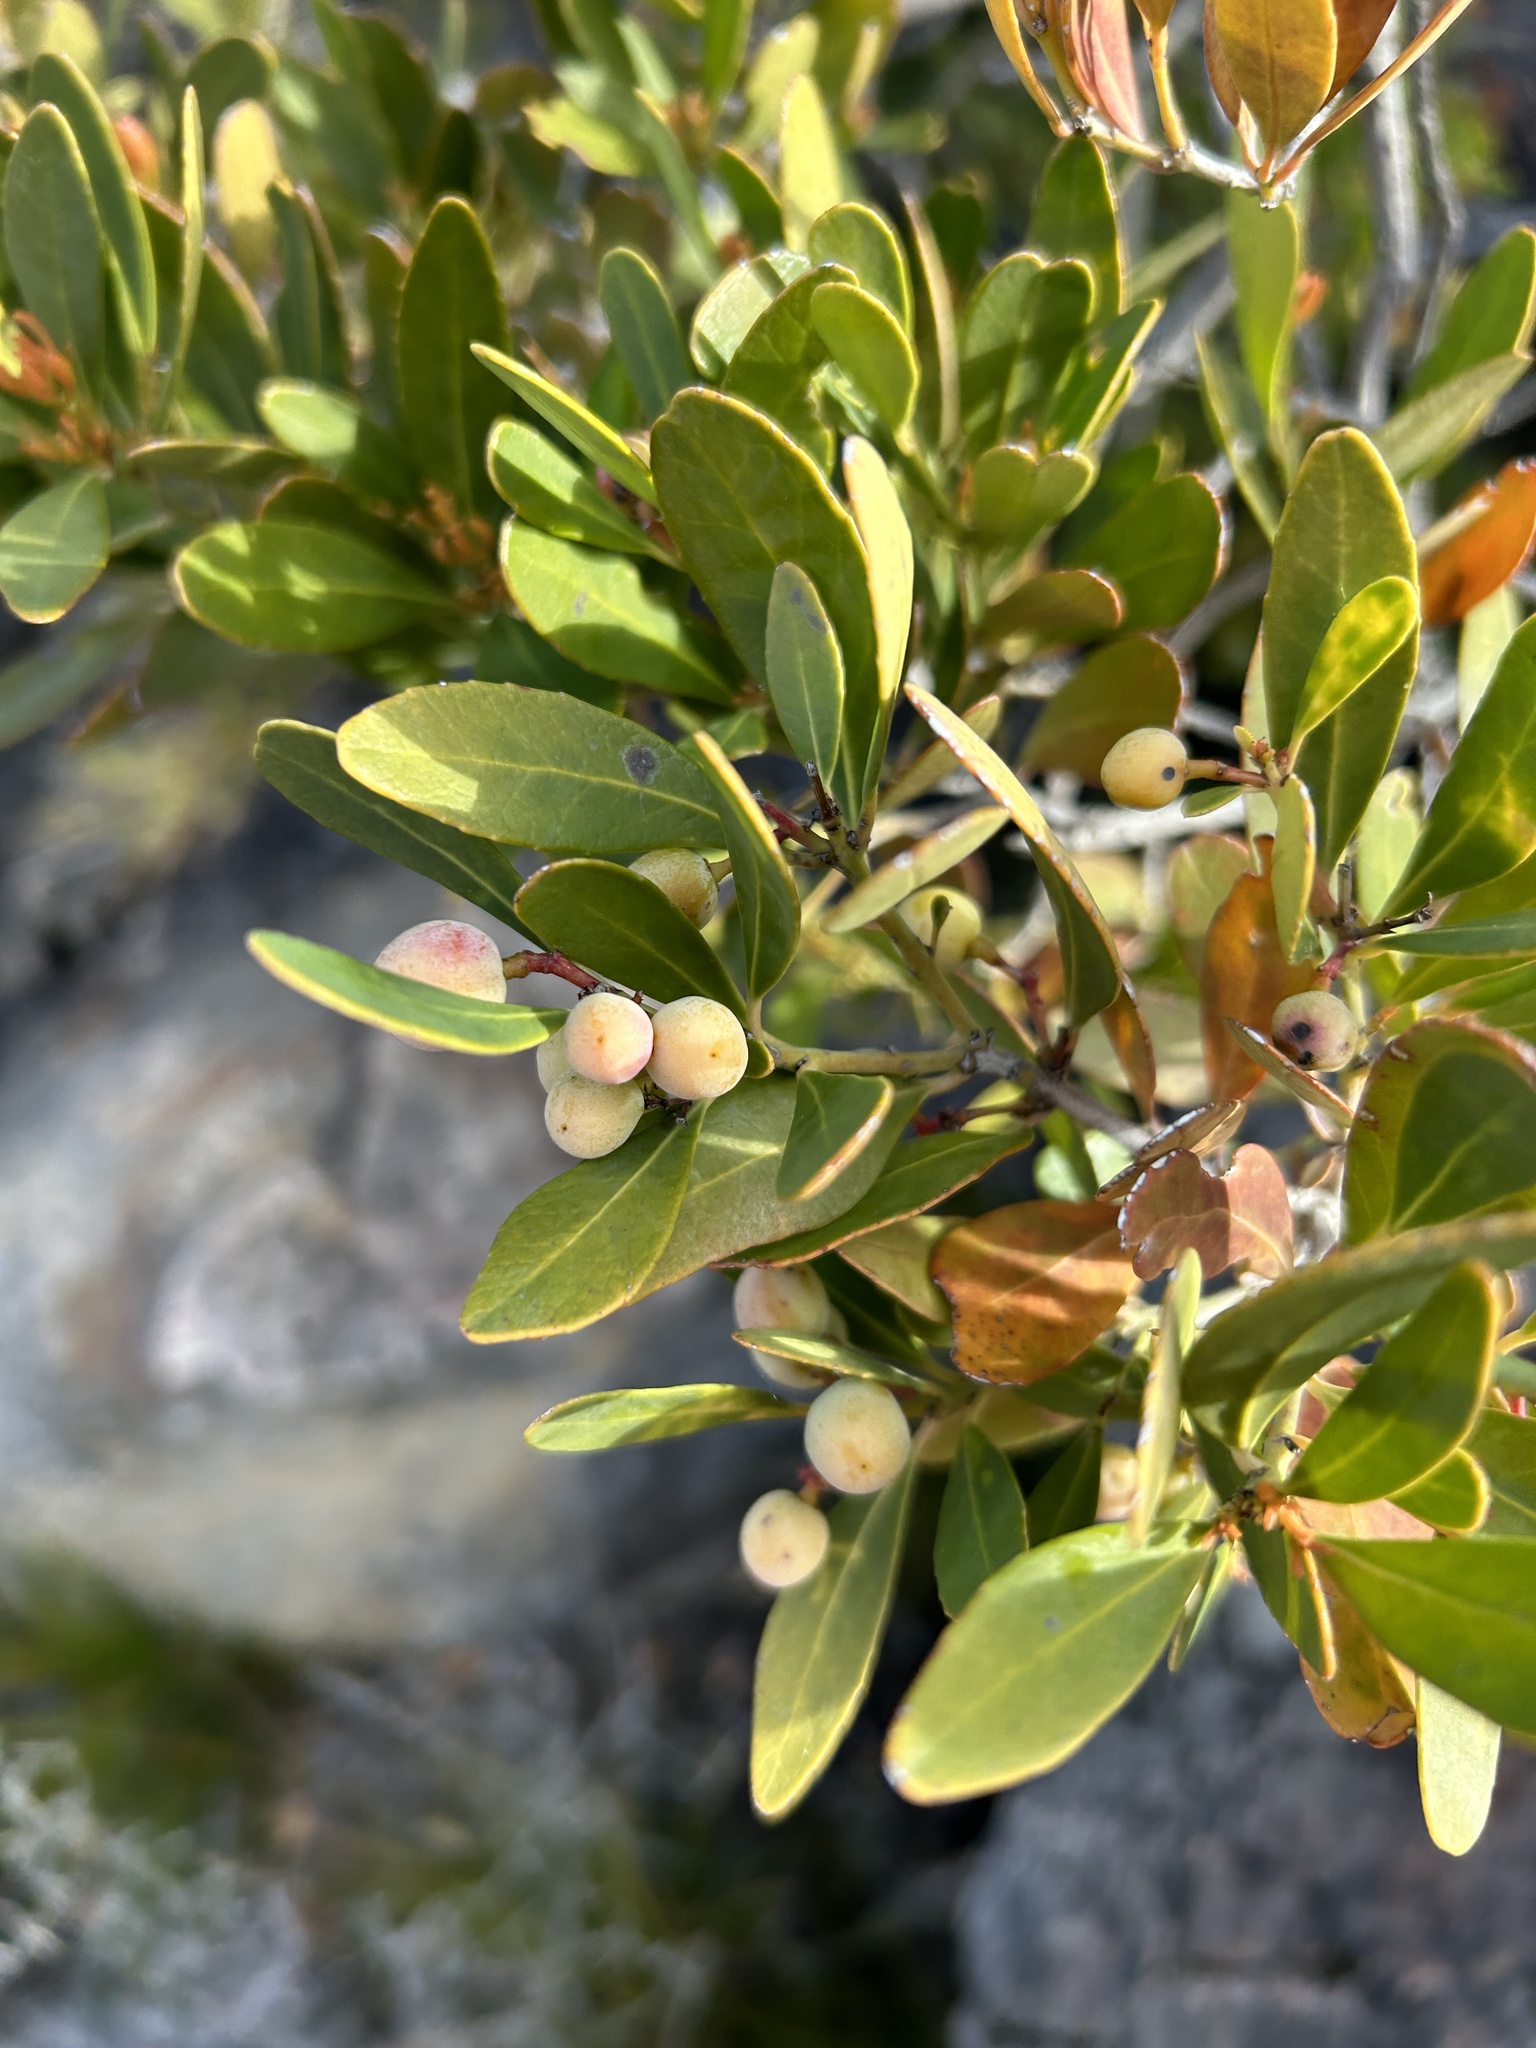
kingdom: Plantae
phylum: Tracheophyta
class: Magnoliopsida
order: Celastrales
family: Celastraceae
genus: Elaeodendron
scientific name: Elaeodendron schinoides
